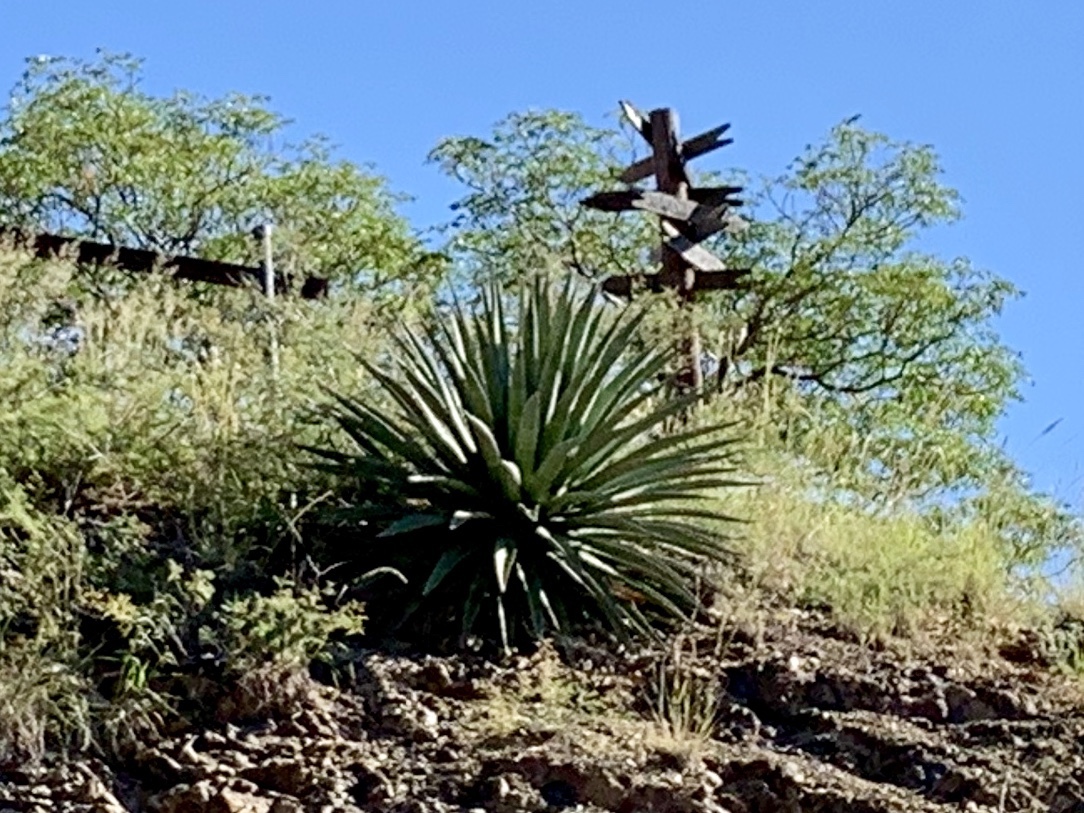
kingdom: Plantae
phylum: Tracheophyta
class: Liliopsida
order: Asparagales
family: Asparagaceae
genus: Agave
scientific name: Agave palmeri
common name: Palmer agave
